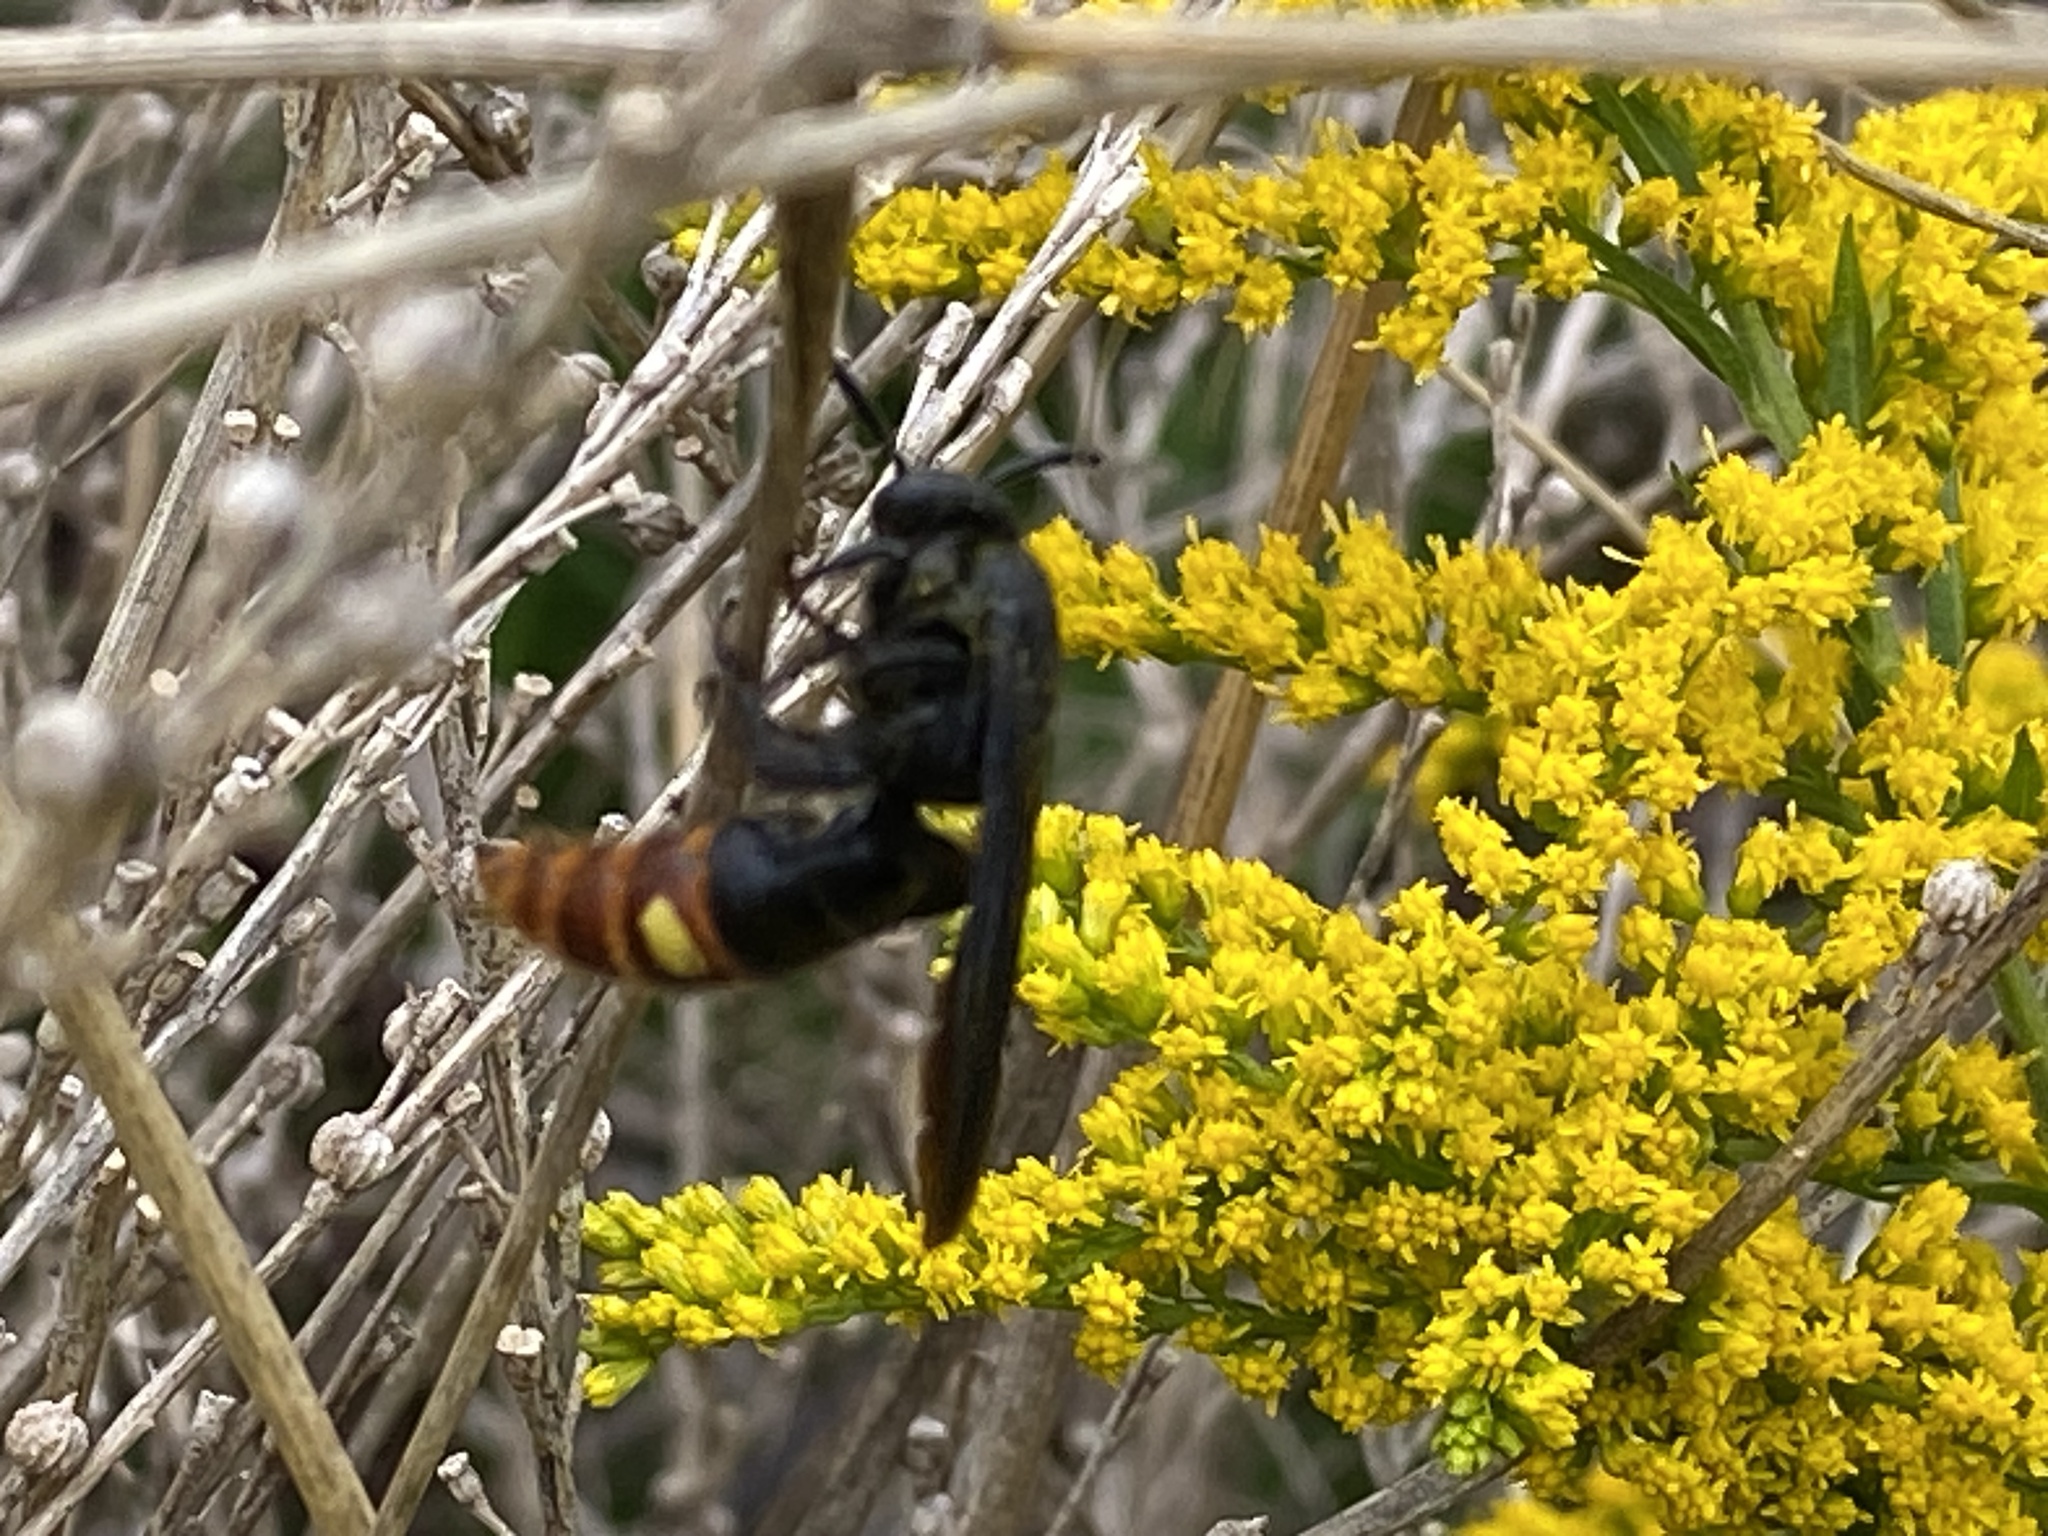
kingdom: Animalia
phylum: Arthropoda
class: Insecta
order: Hymenoptera
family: Scoliidae
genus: Scolia
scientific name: Scolia dubia
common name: Blue-winged scoliid wasp
